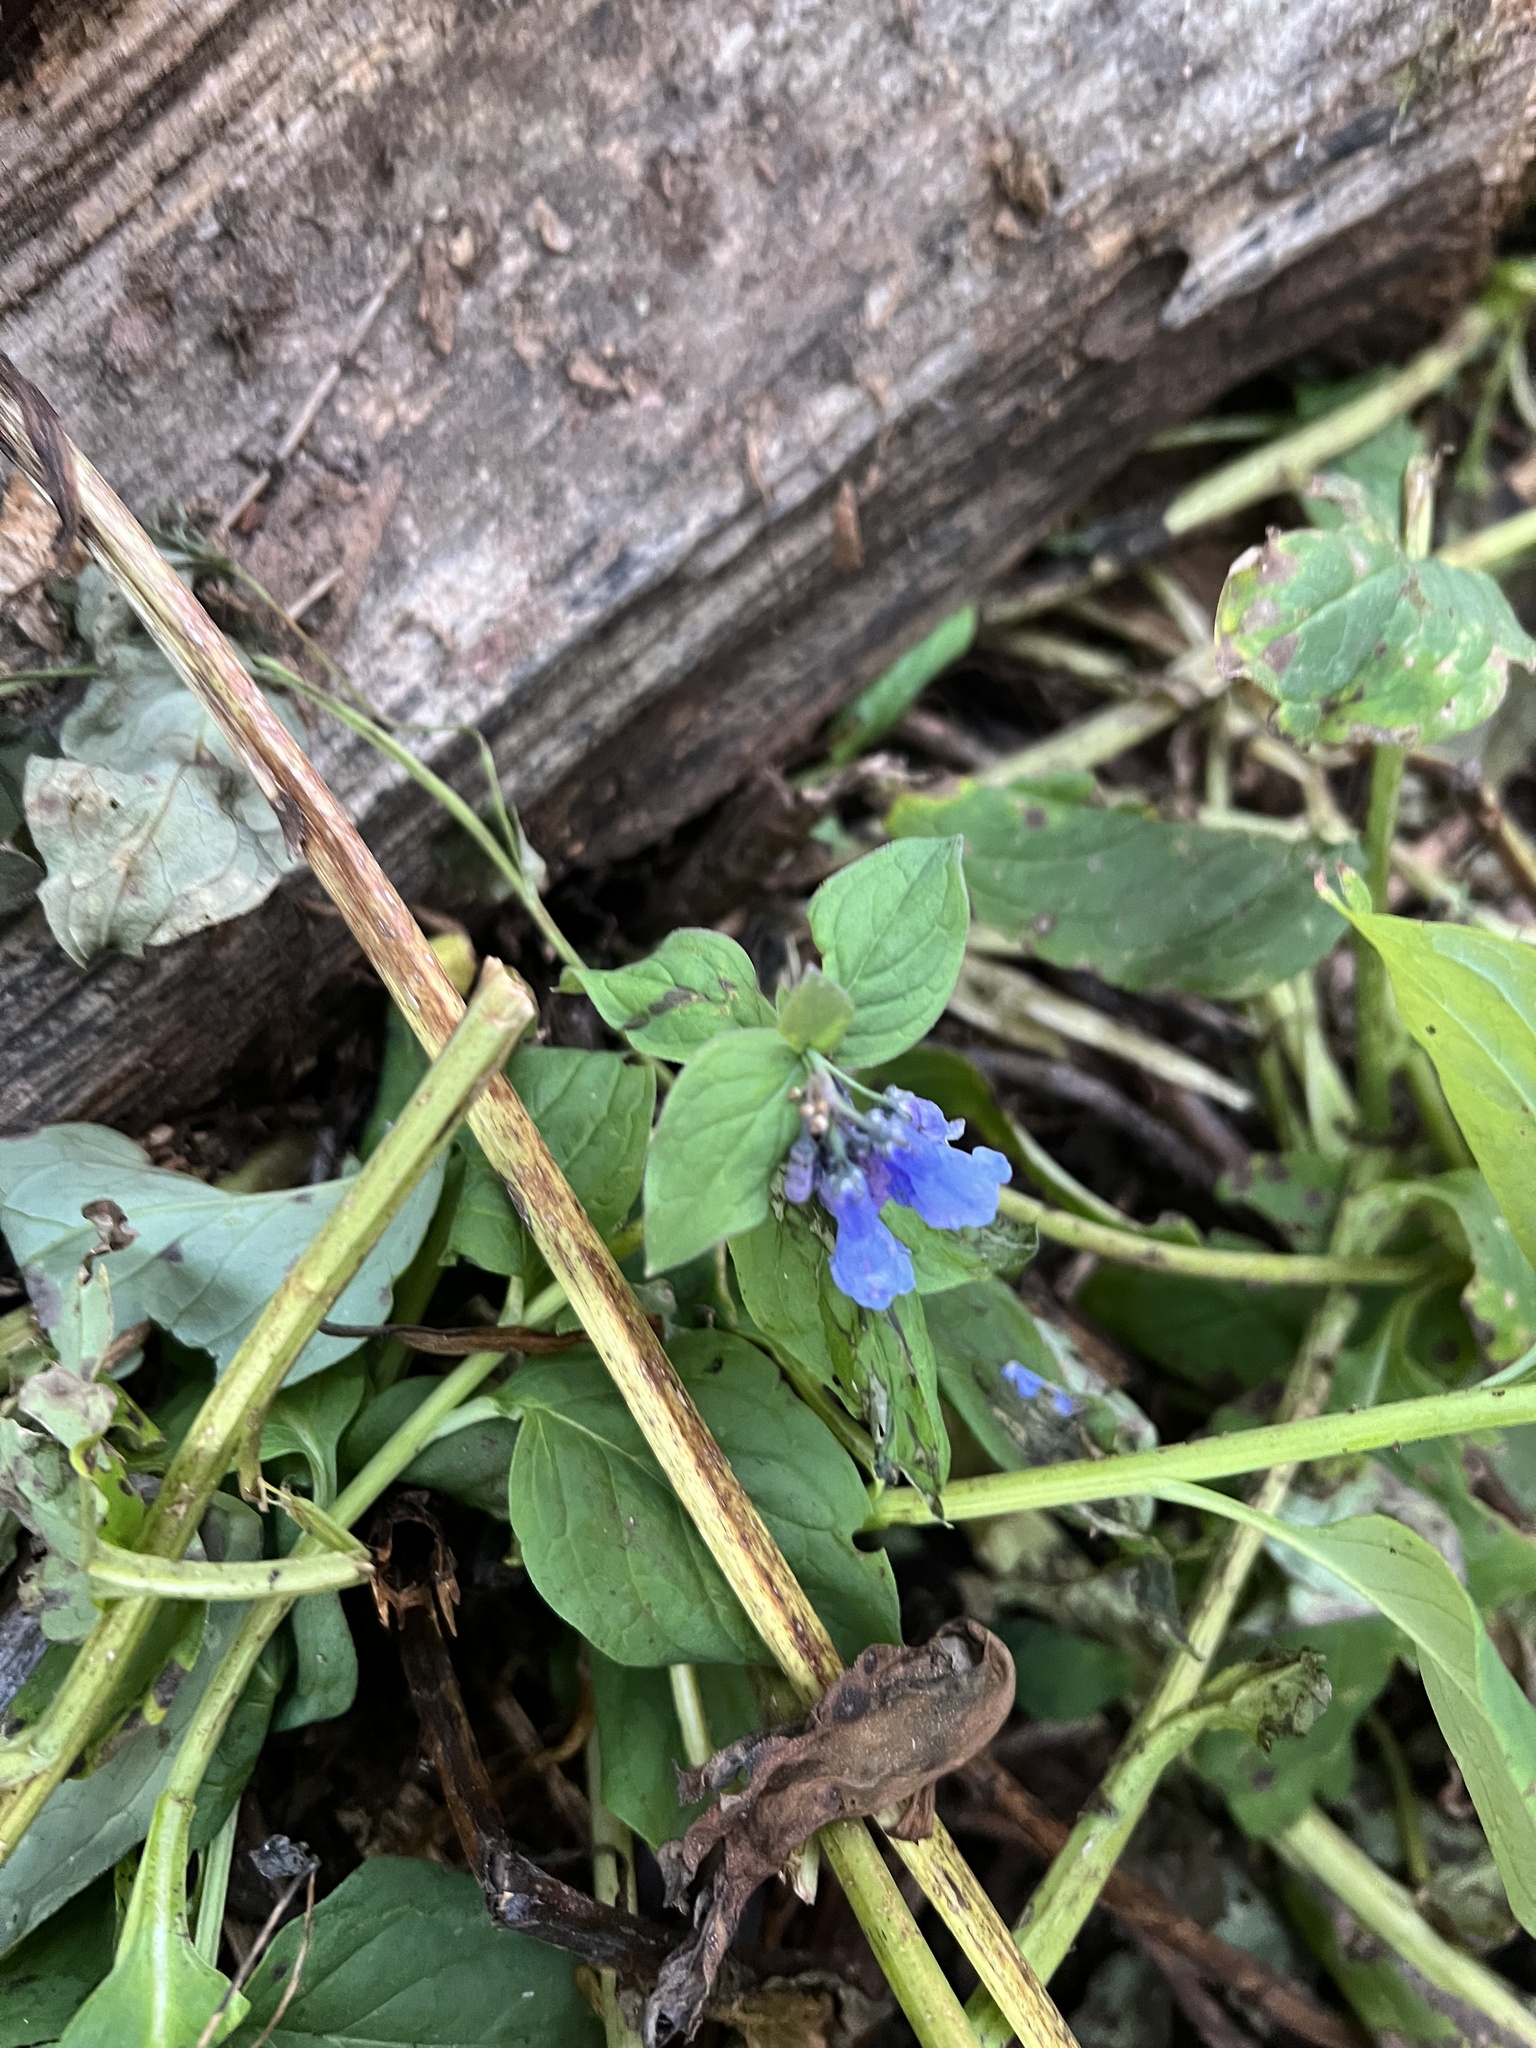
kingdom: Plantae
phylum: Tracheophyta
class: Magnoliopsida
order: Boraginales
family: Boraginaceae
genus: Mertensia
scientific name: Mertensia ciliata
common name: Tall chiming-bells
